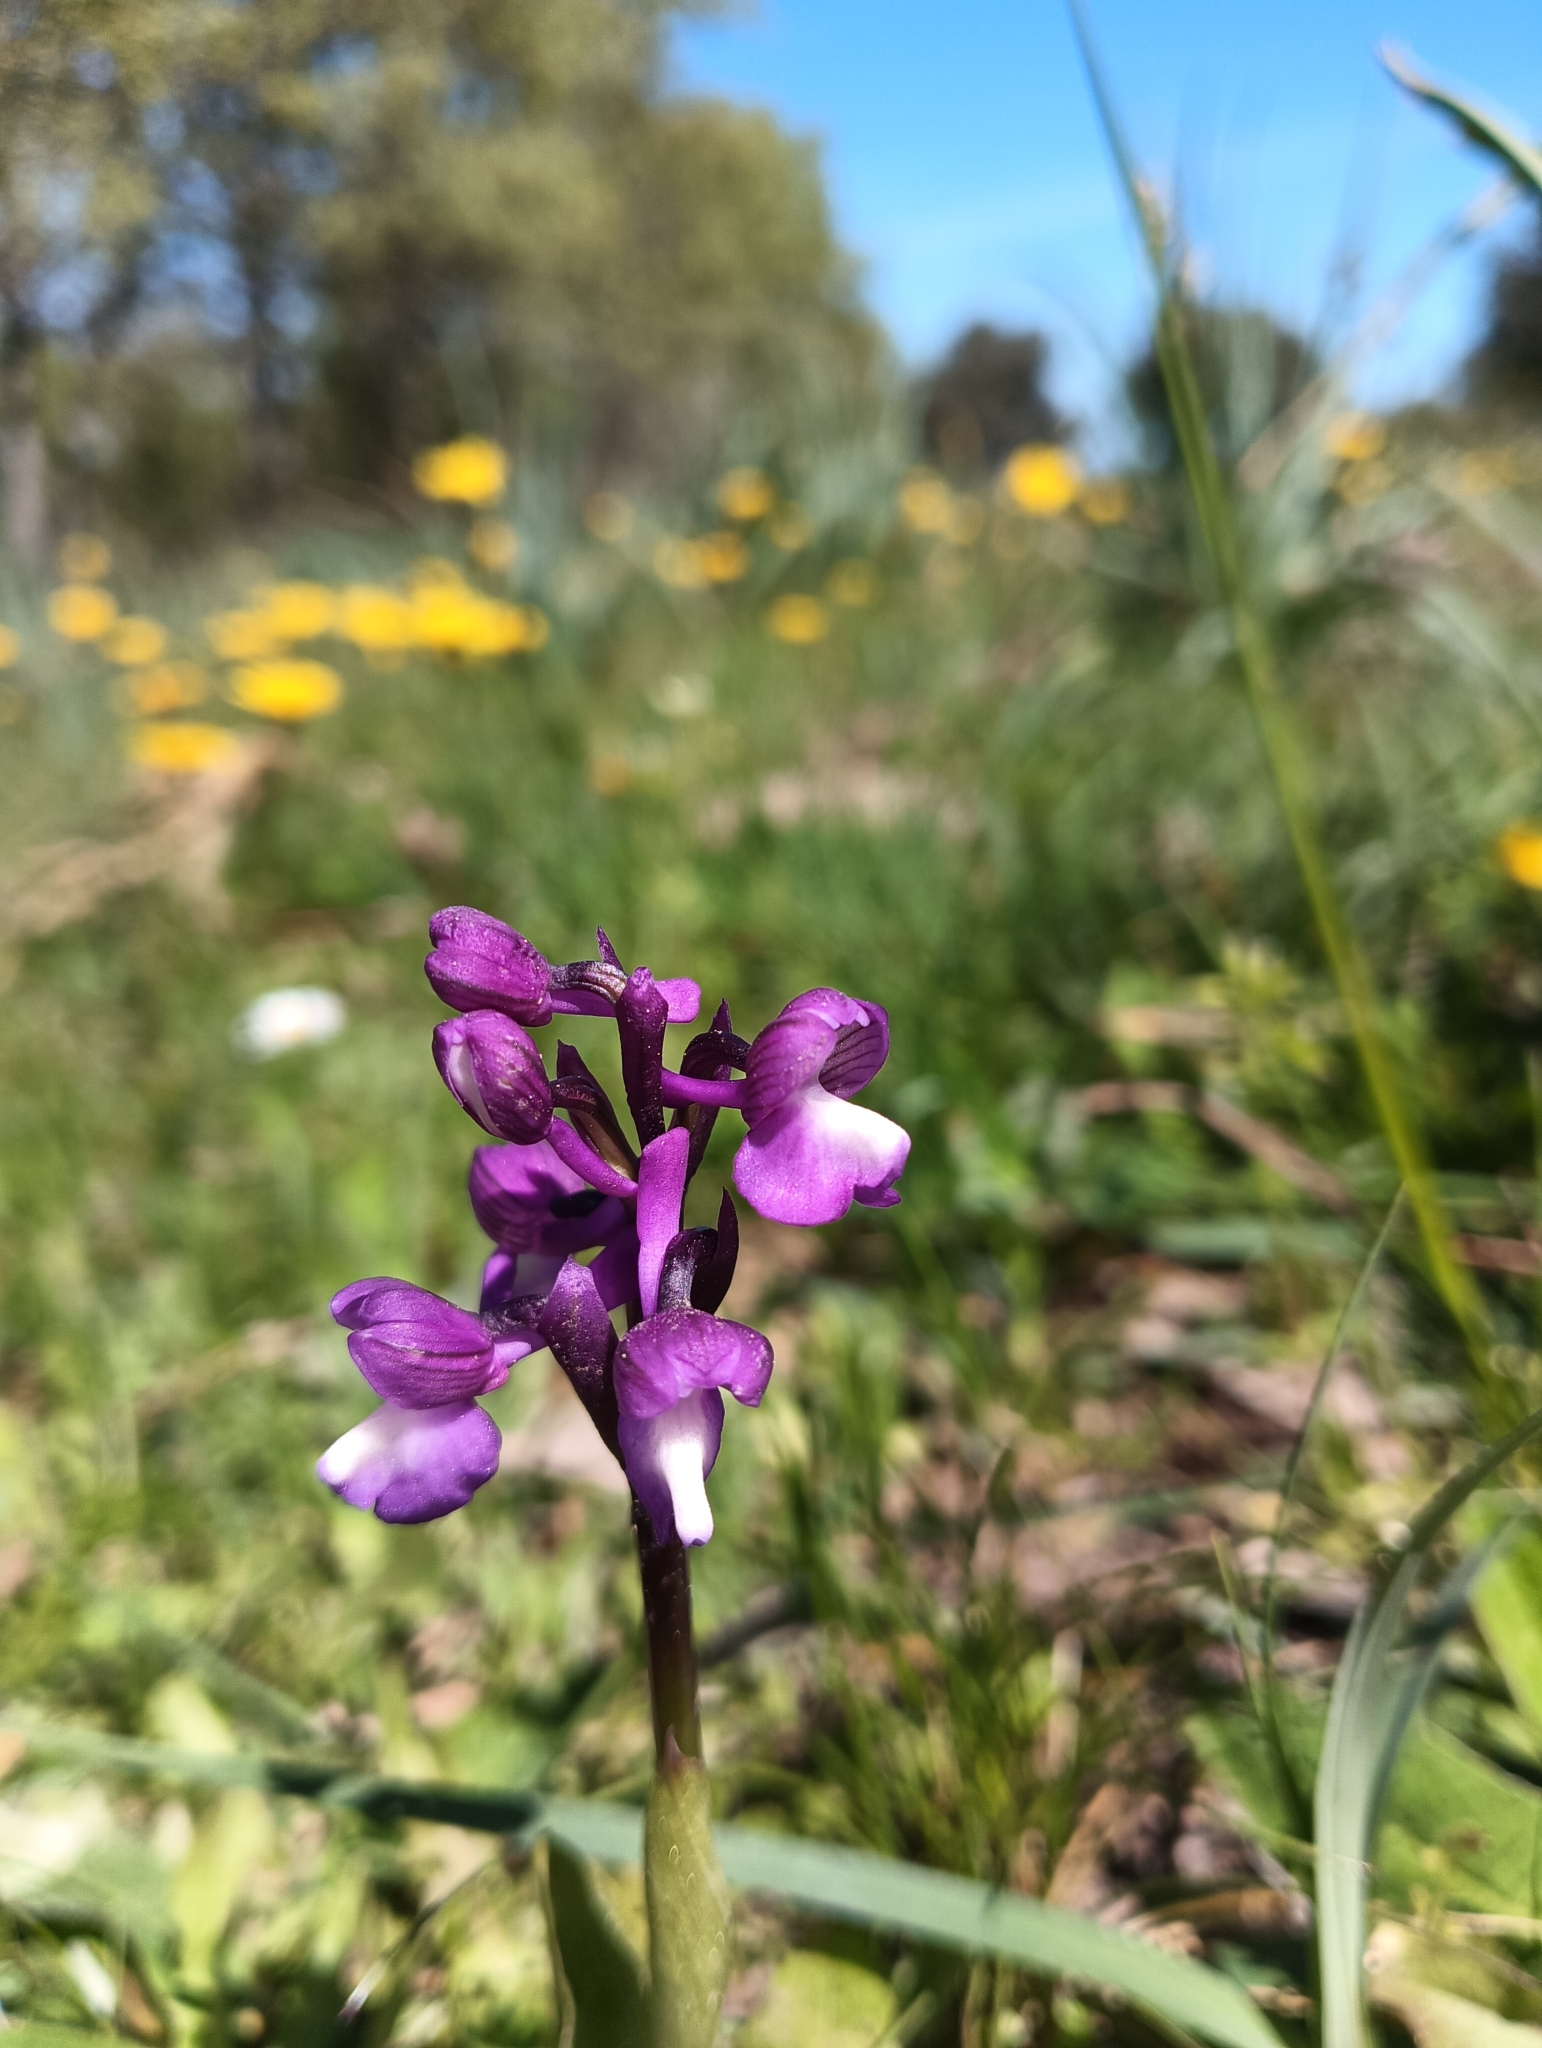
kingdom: Plantae
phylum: Tracheophyta
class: Liliopsida
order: Asparagales
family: Orchidaceae
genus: Anacamptis
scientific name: Anacamptis morio
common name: Green-winged orchid
